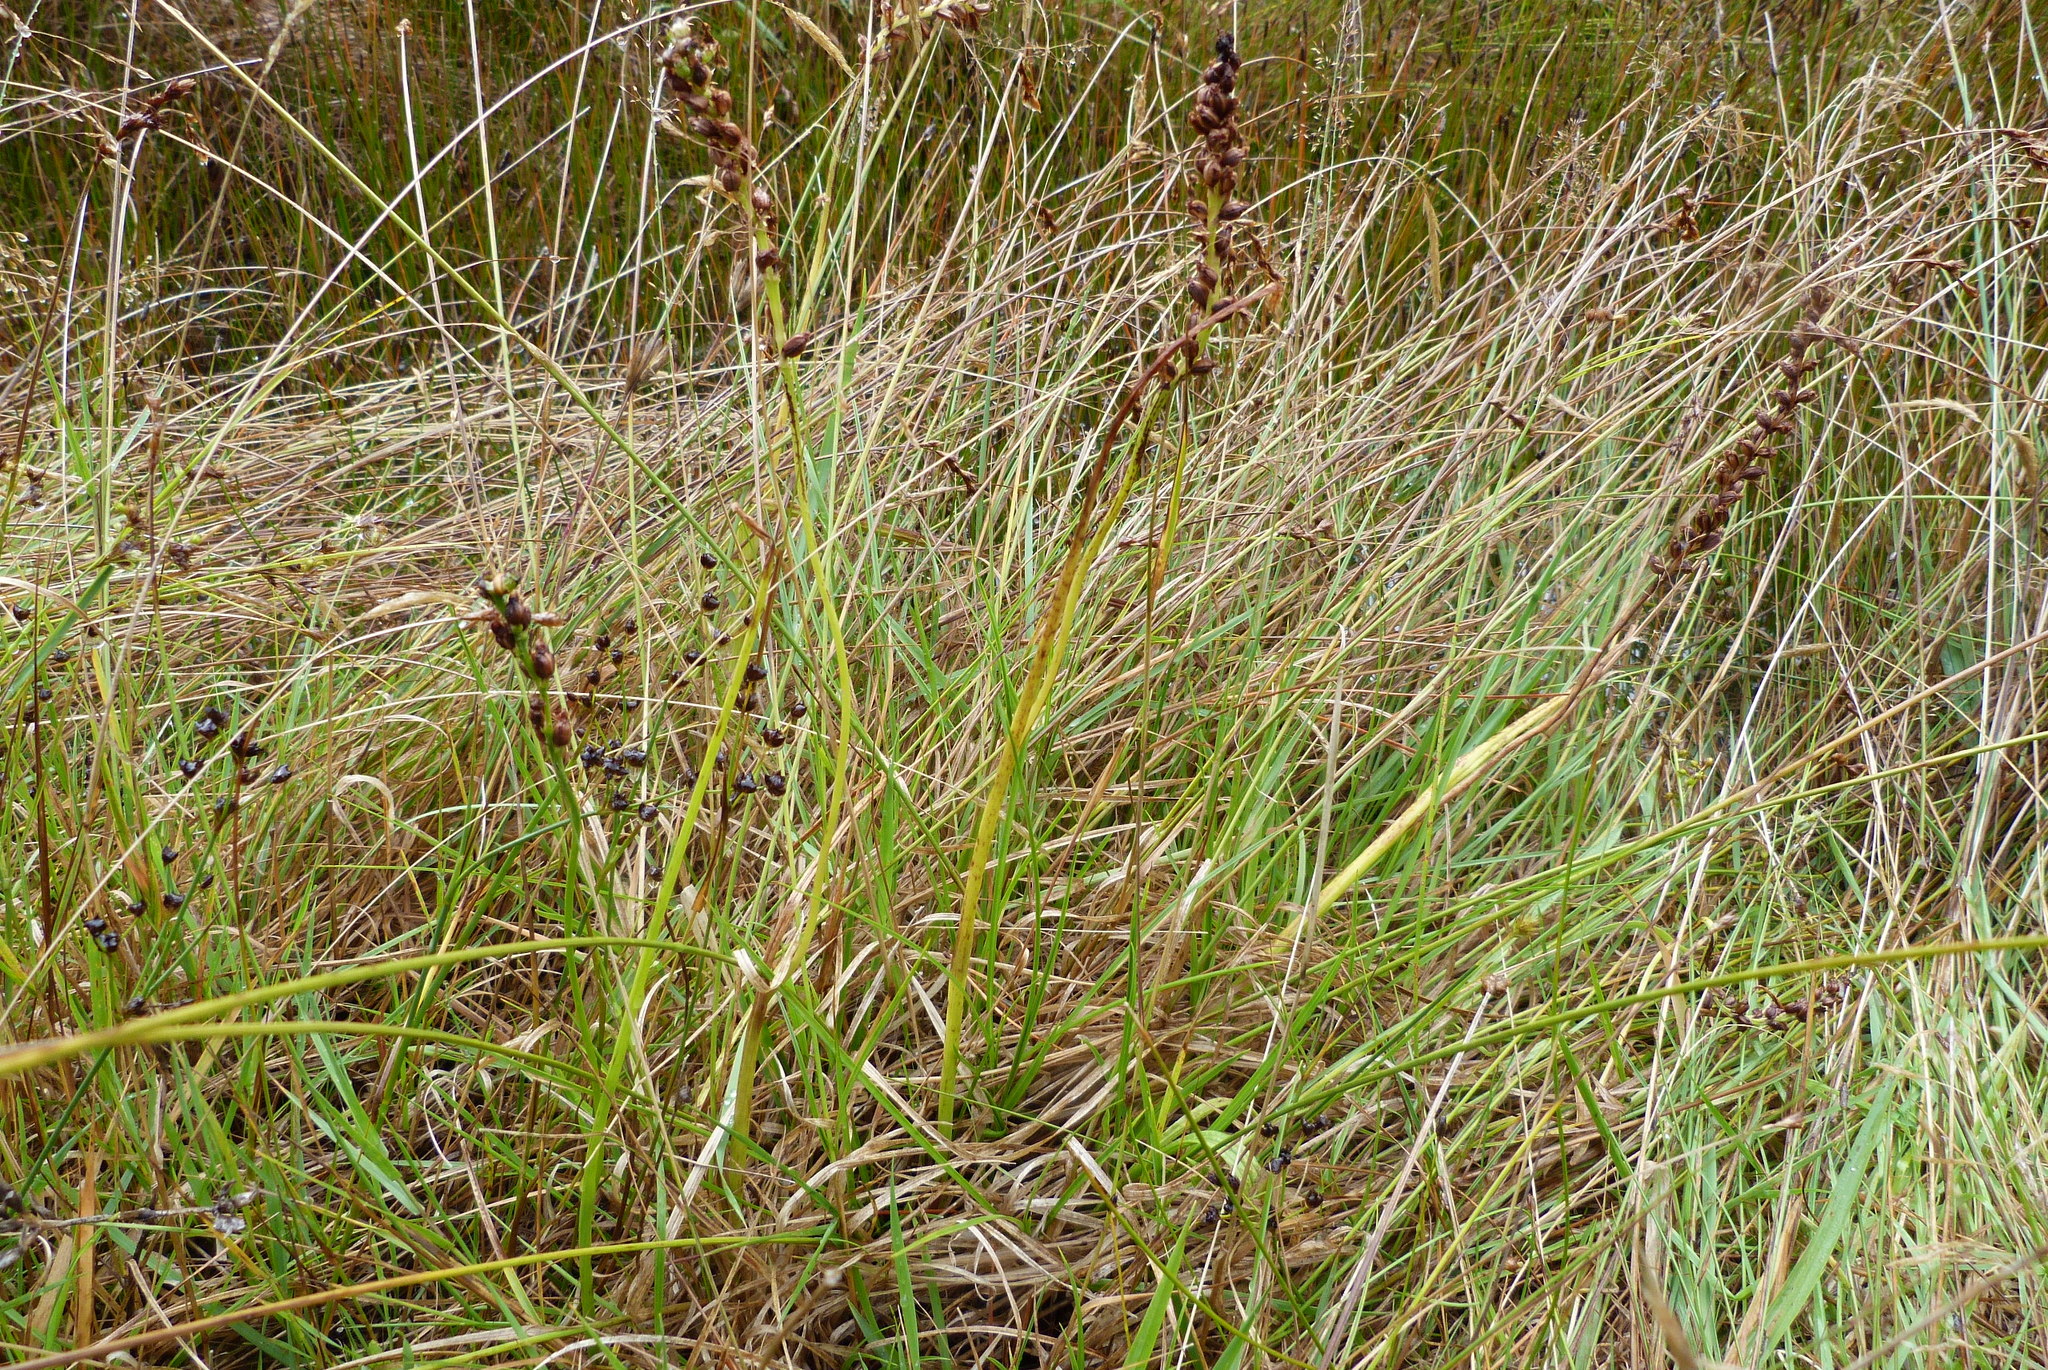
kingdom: Plantae
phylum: Tracheophyta
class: Liliopsida
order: Asparagales
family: Orchidaceae
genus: Microtis
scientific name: Microtis unifolia
